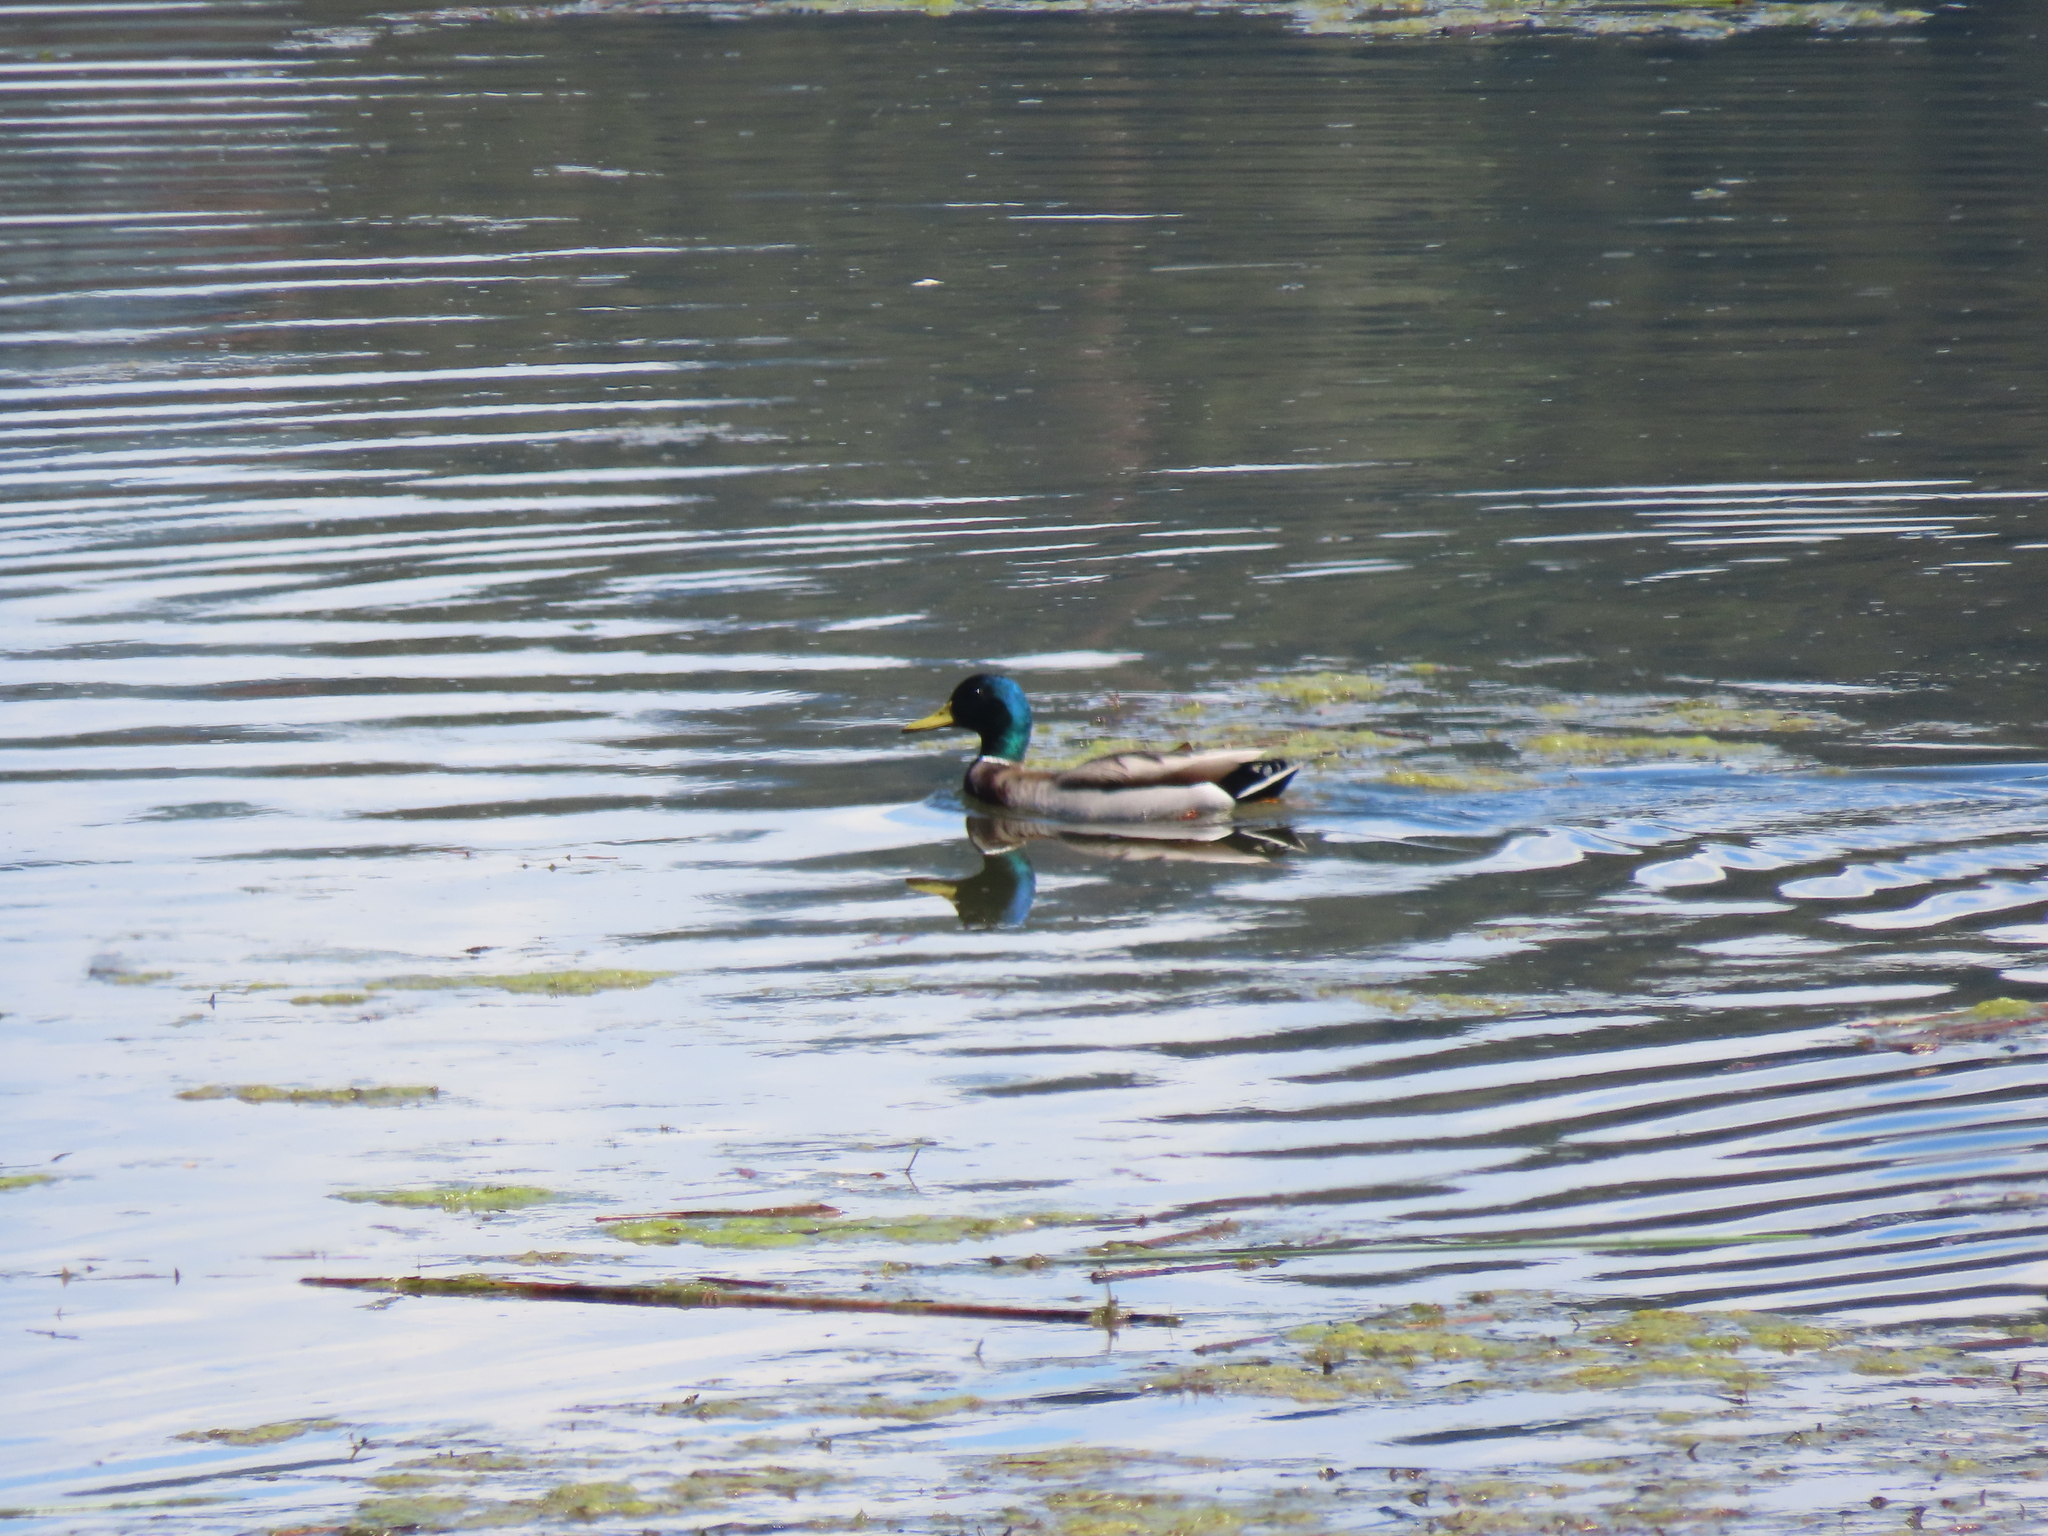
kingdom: Animalia
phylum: Chordata
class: Aves
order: Anseriformes
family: Anatidae
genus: Anas
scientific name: Anas platyrhynchos
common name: Mallard
